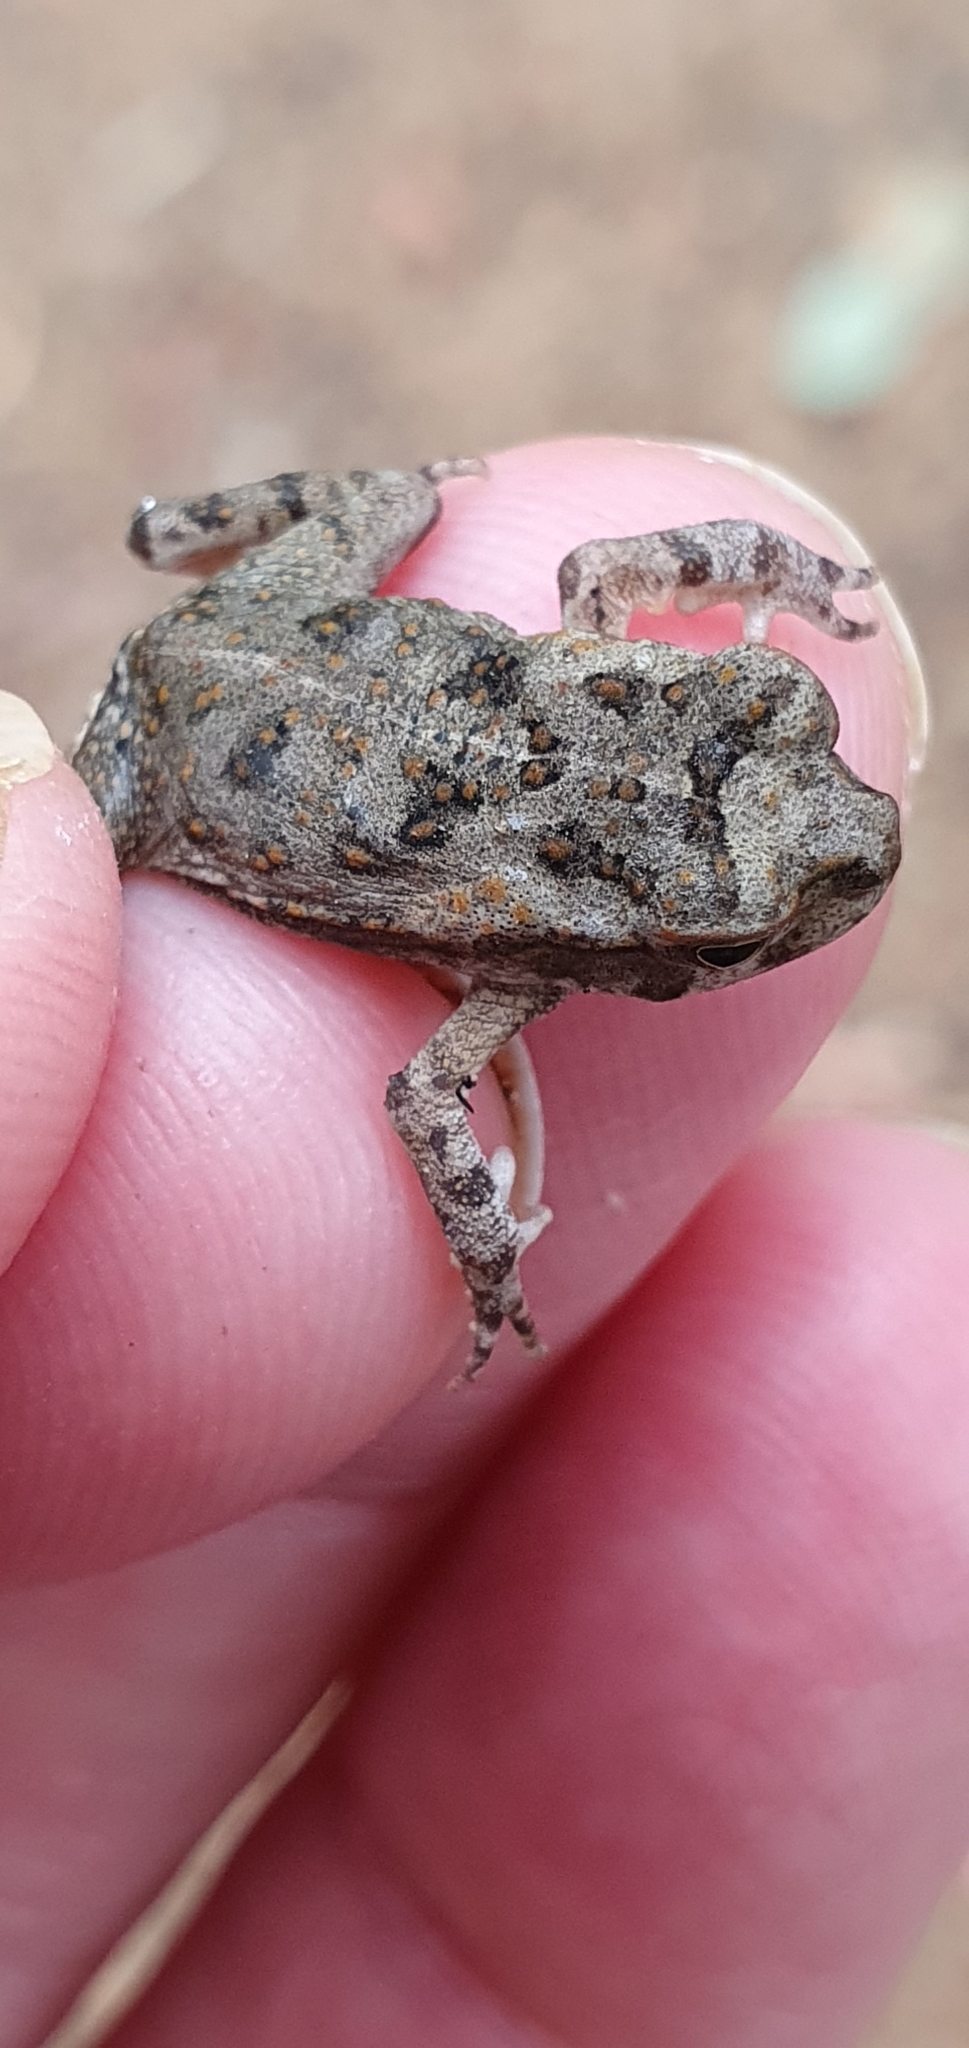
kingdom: Animalia
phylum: Chordata
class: Amphibia
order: Anura
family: Bufonidae
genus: Rhinella
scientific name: Rhinella marina
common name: Cane toad
